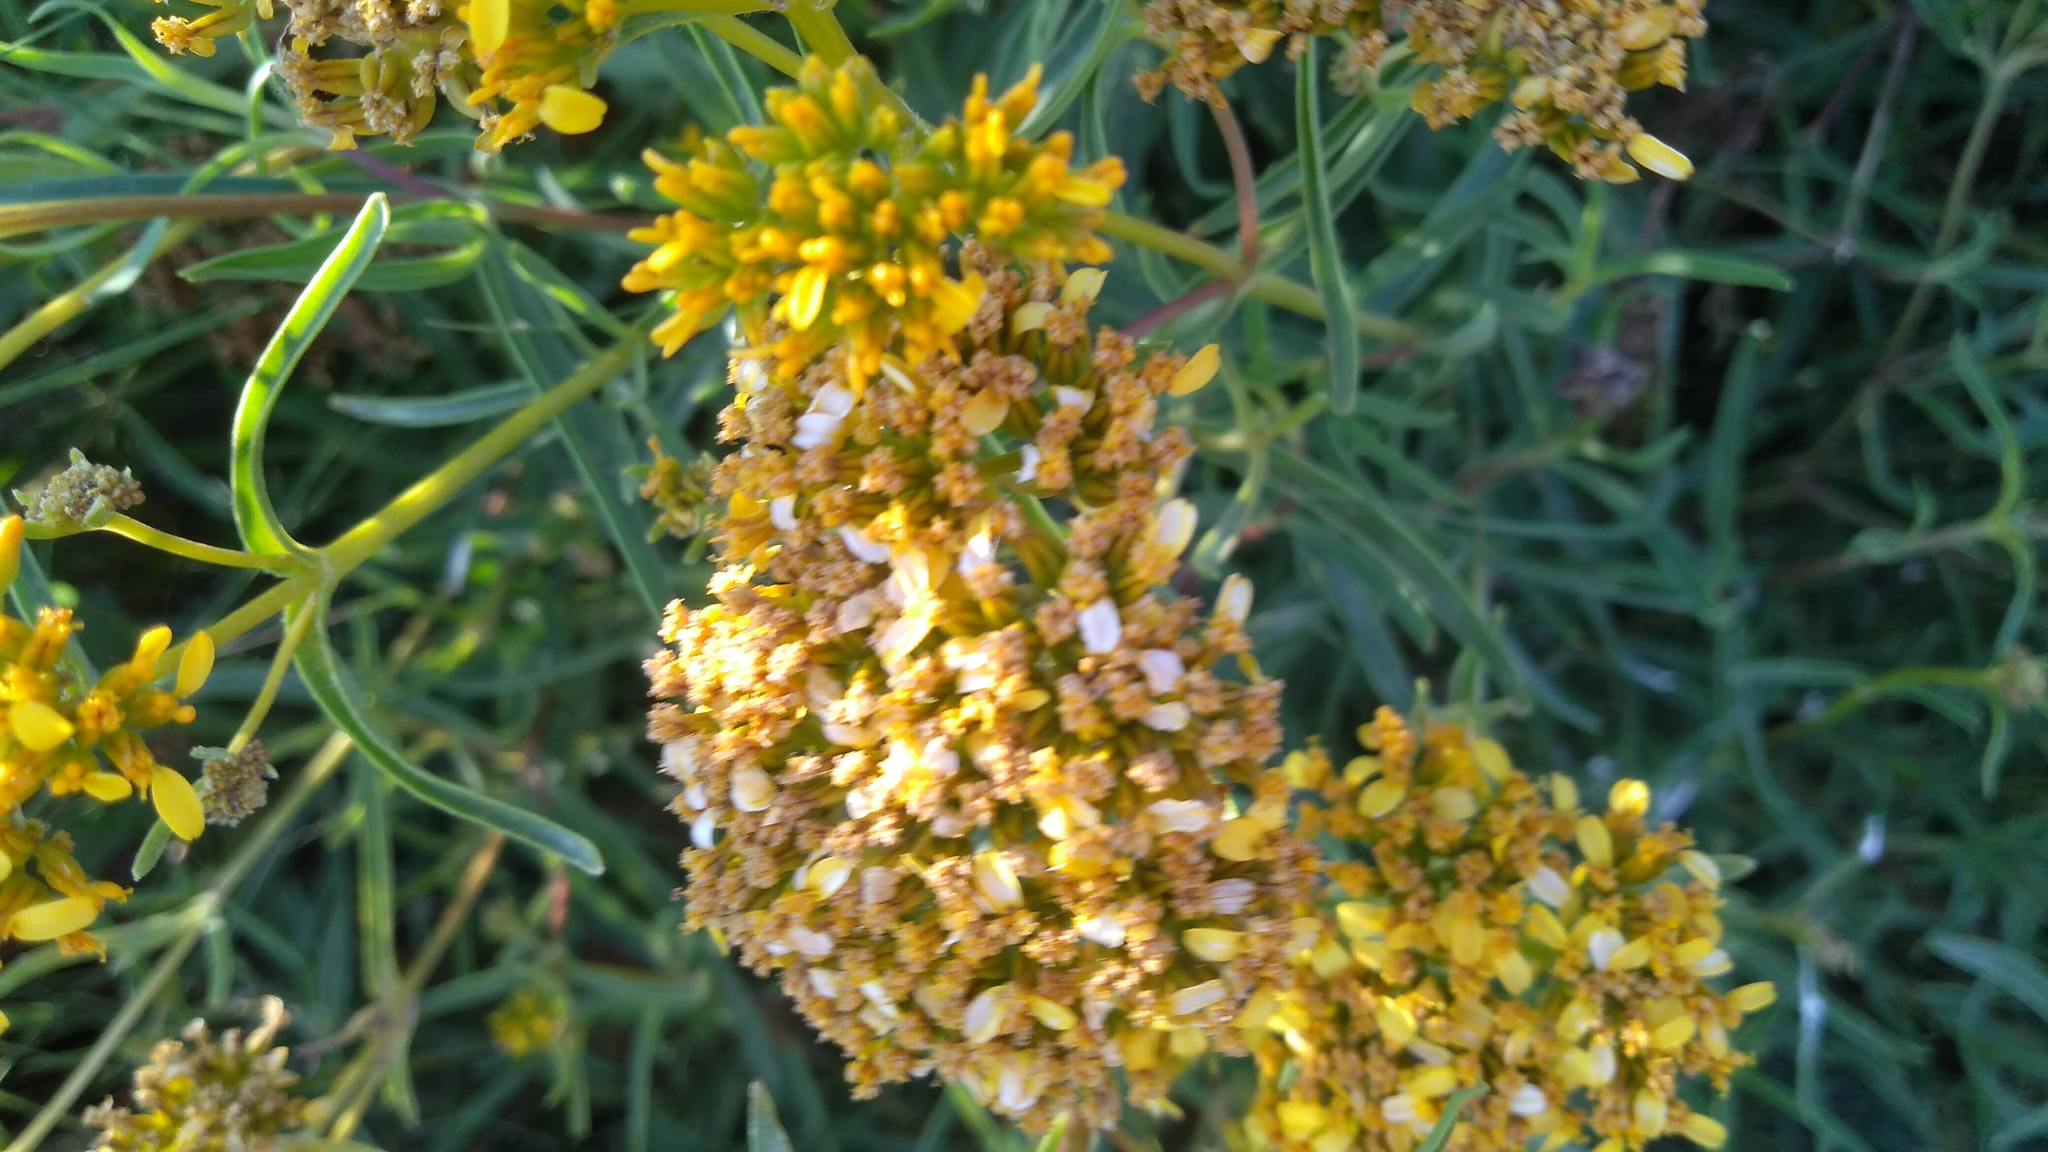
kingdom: Plantae
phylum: Tracheophyta
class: Magnoliopsida
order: Asterales
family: Asteraceae
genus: Flaveria
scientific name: Flaveria linearis
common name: Yellowtop
